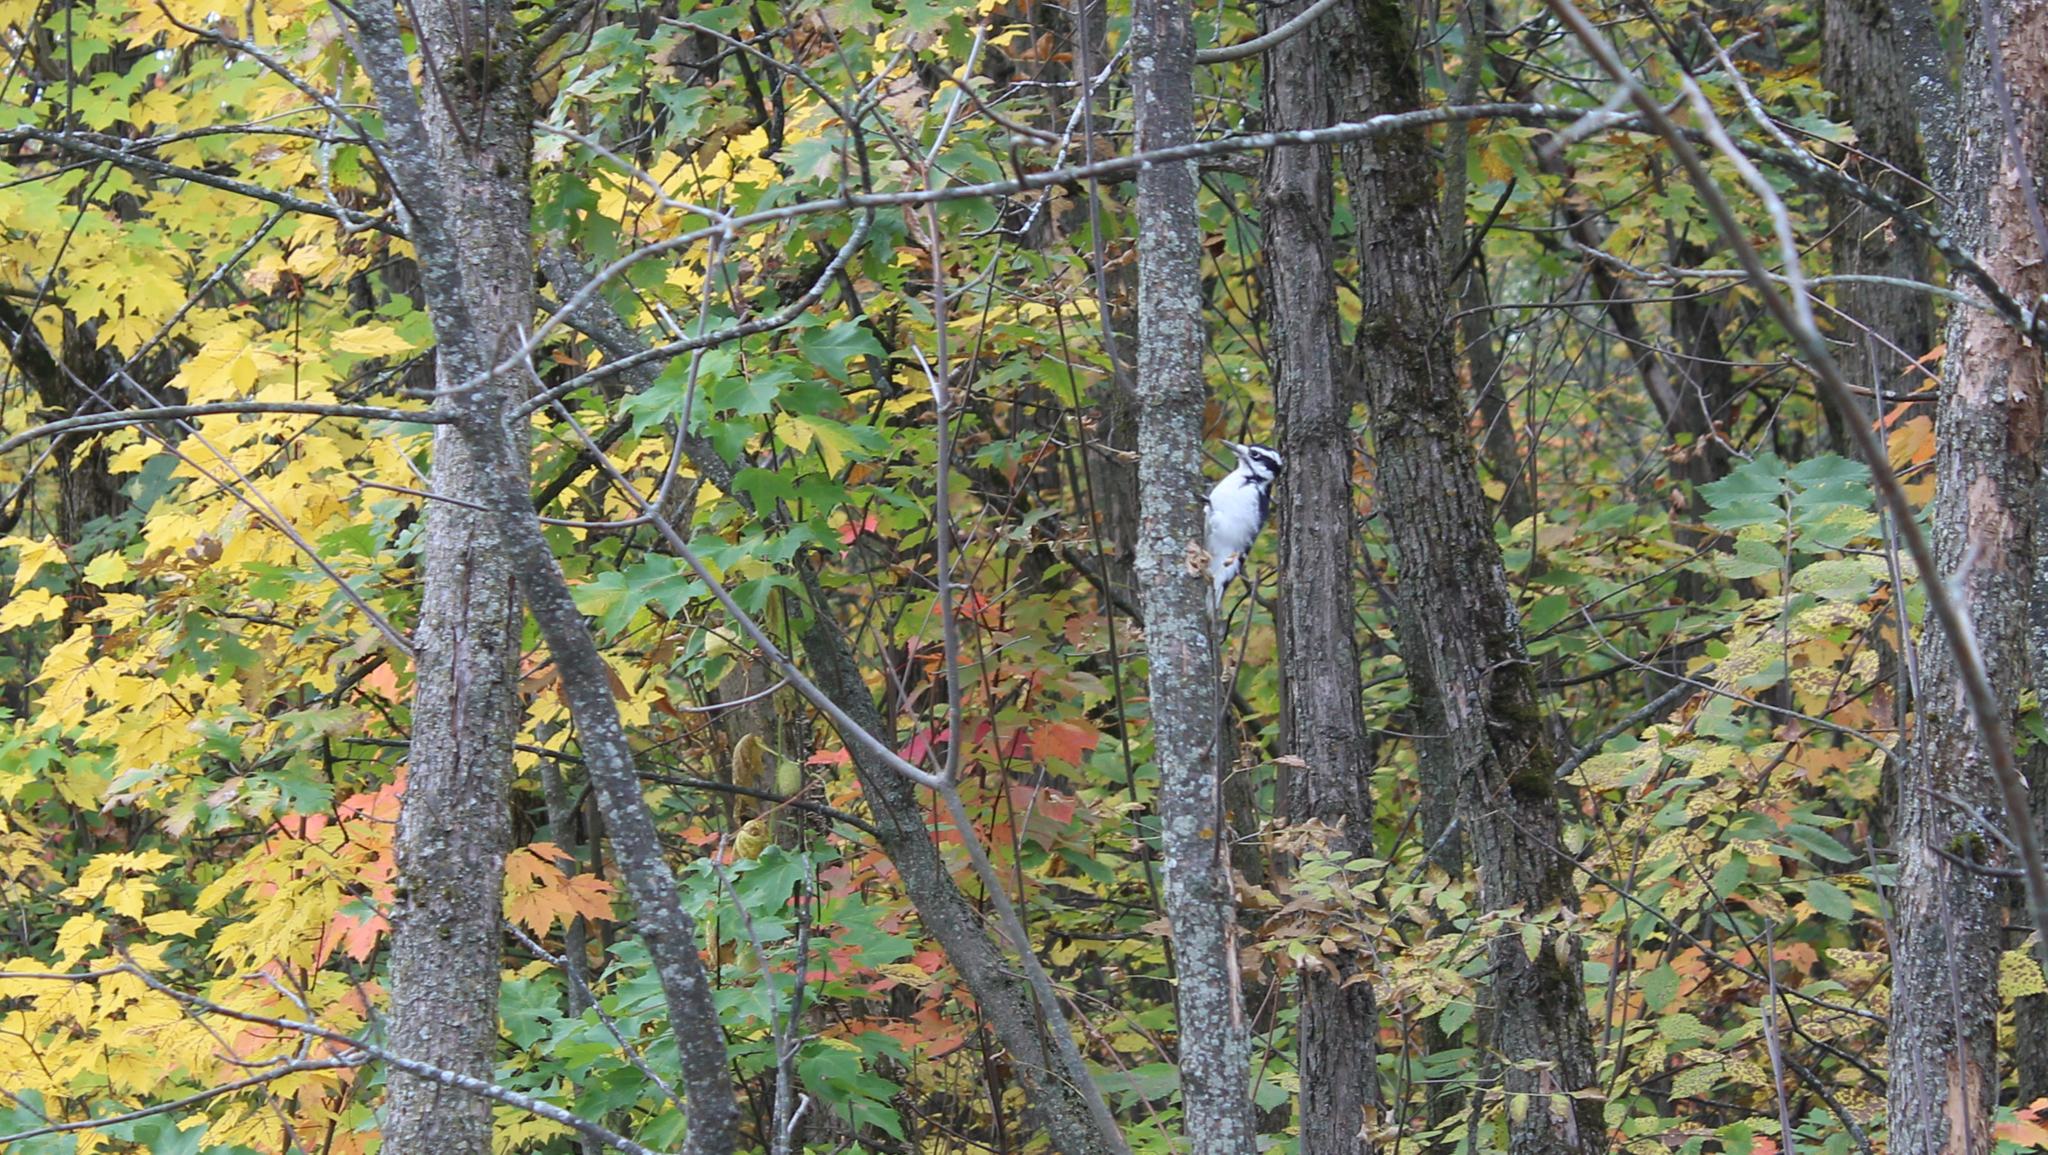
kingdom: Animalia
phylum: Chordata
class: Aves
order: Piciformes
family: Picidae
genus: Leuconotopicus
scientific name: Leuconotopicus villosus
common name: Hairy woodpecker
